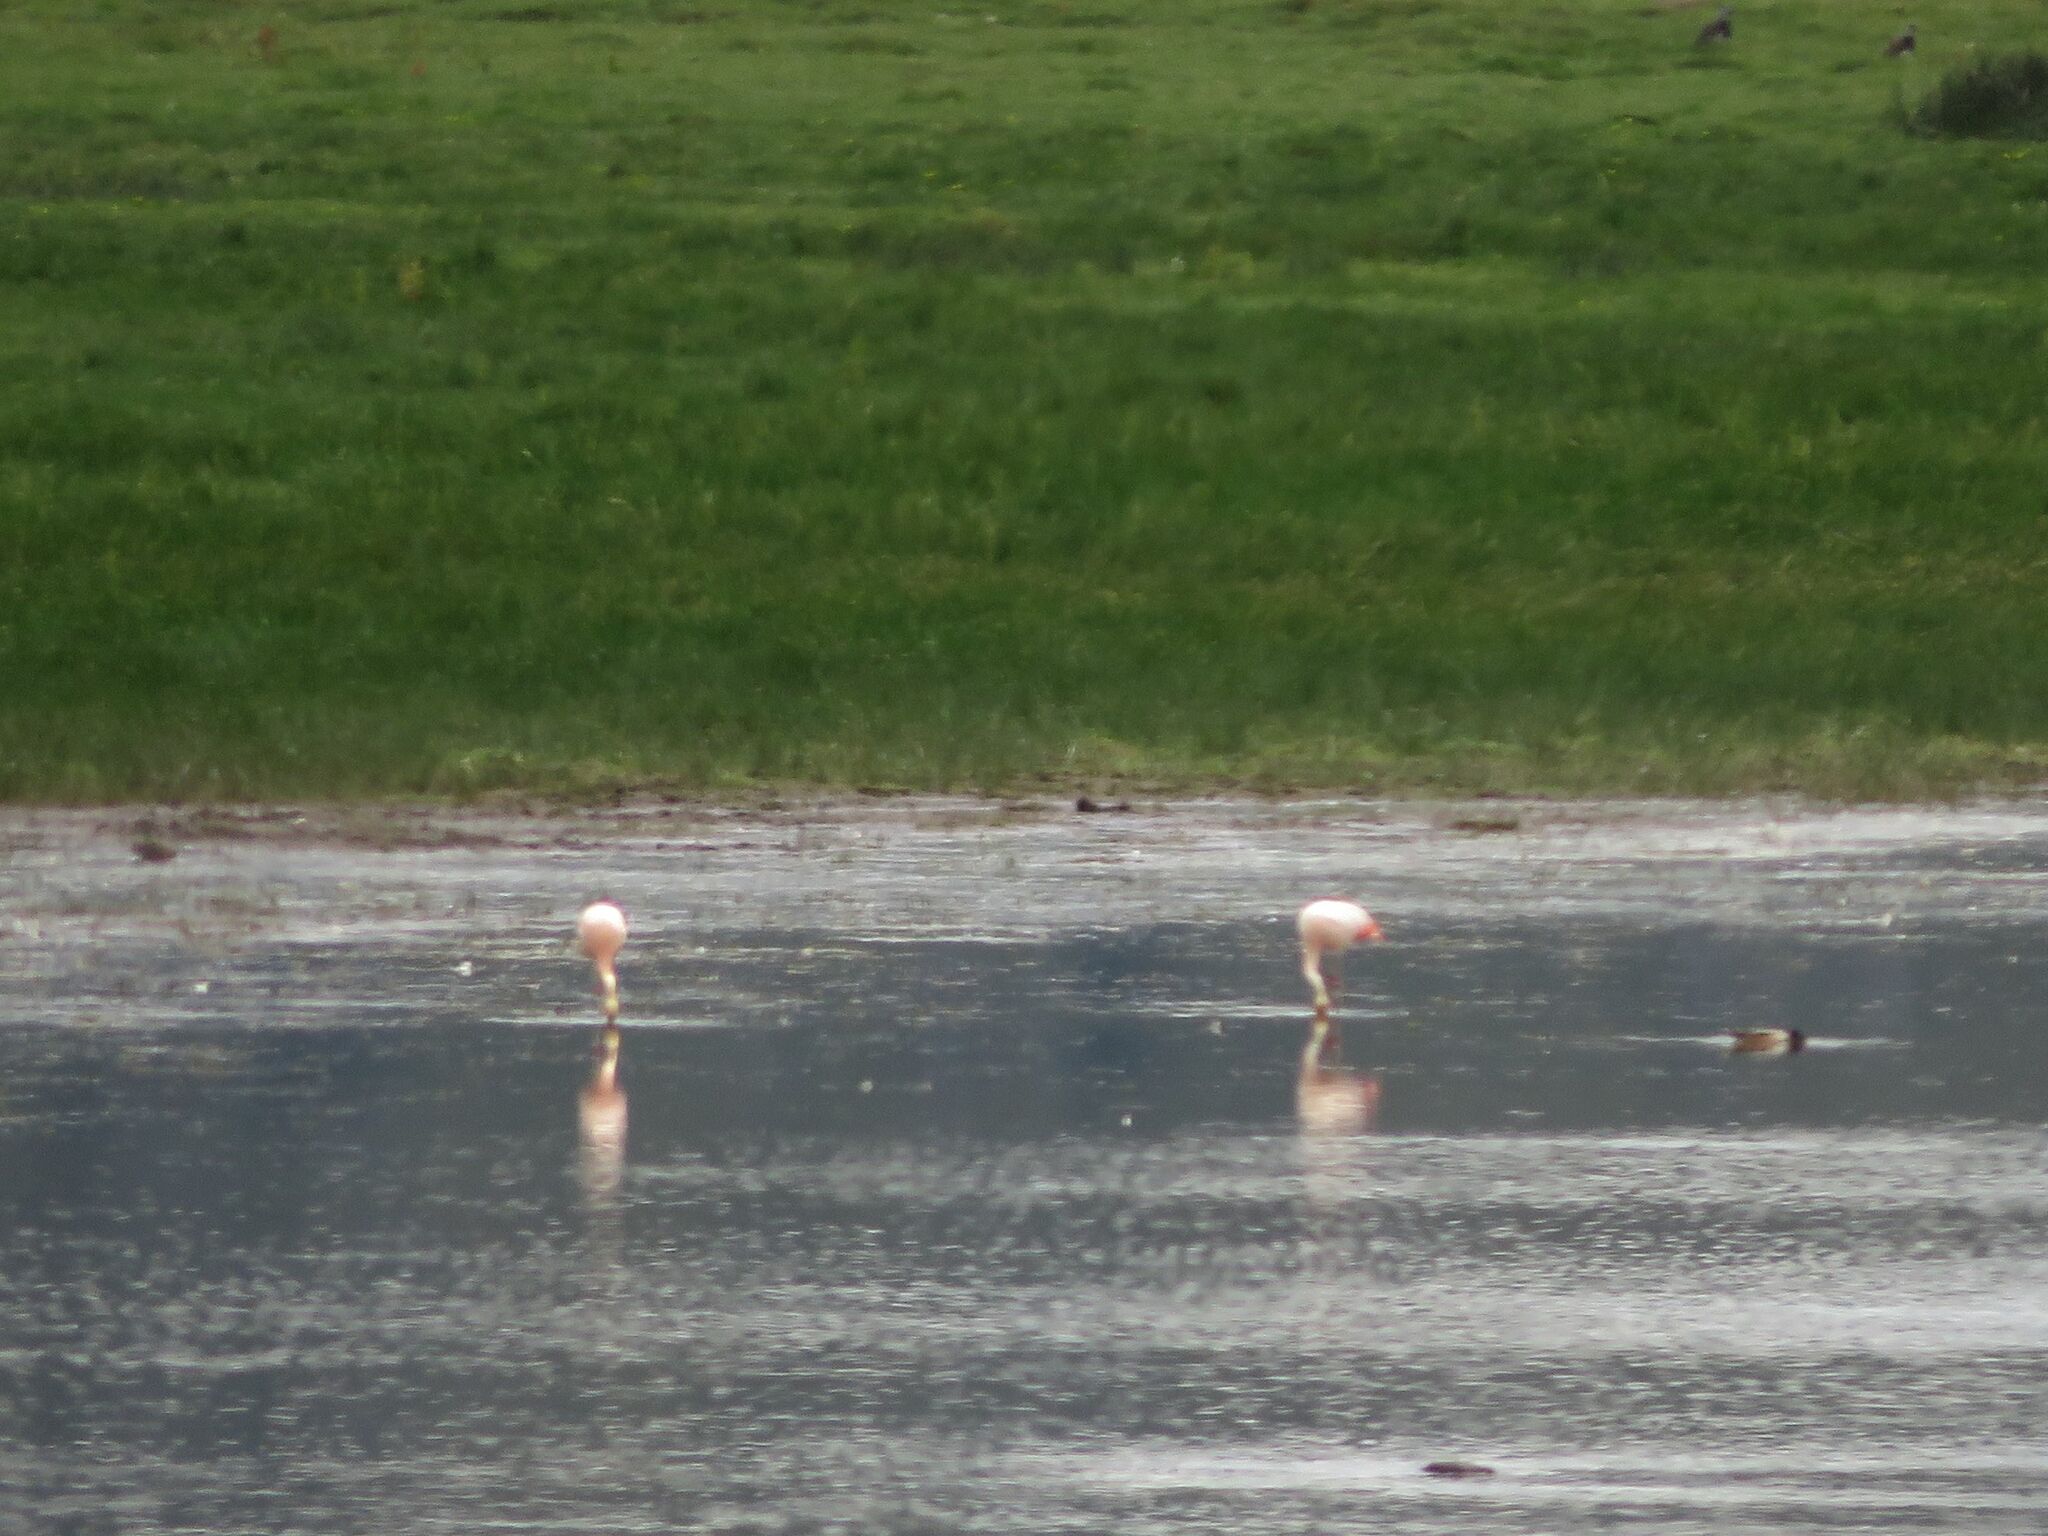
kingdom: Animalia
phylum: Chordata
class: Aves
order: Phoenicopteriformes
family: Phoenicopteridae
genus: Phoenicopterus
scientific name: Phoenicopterus chilensis
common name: Chilean flamingo
